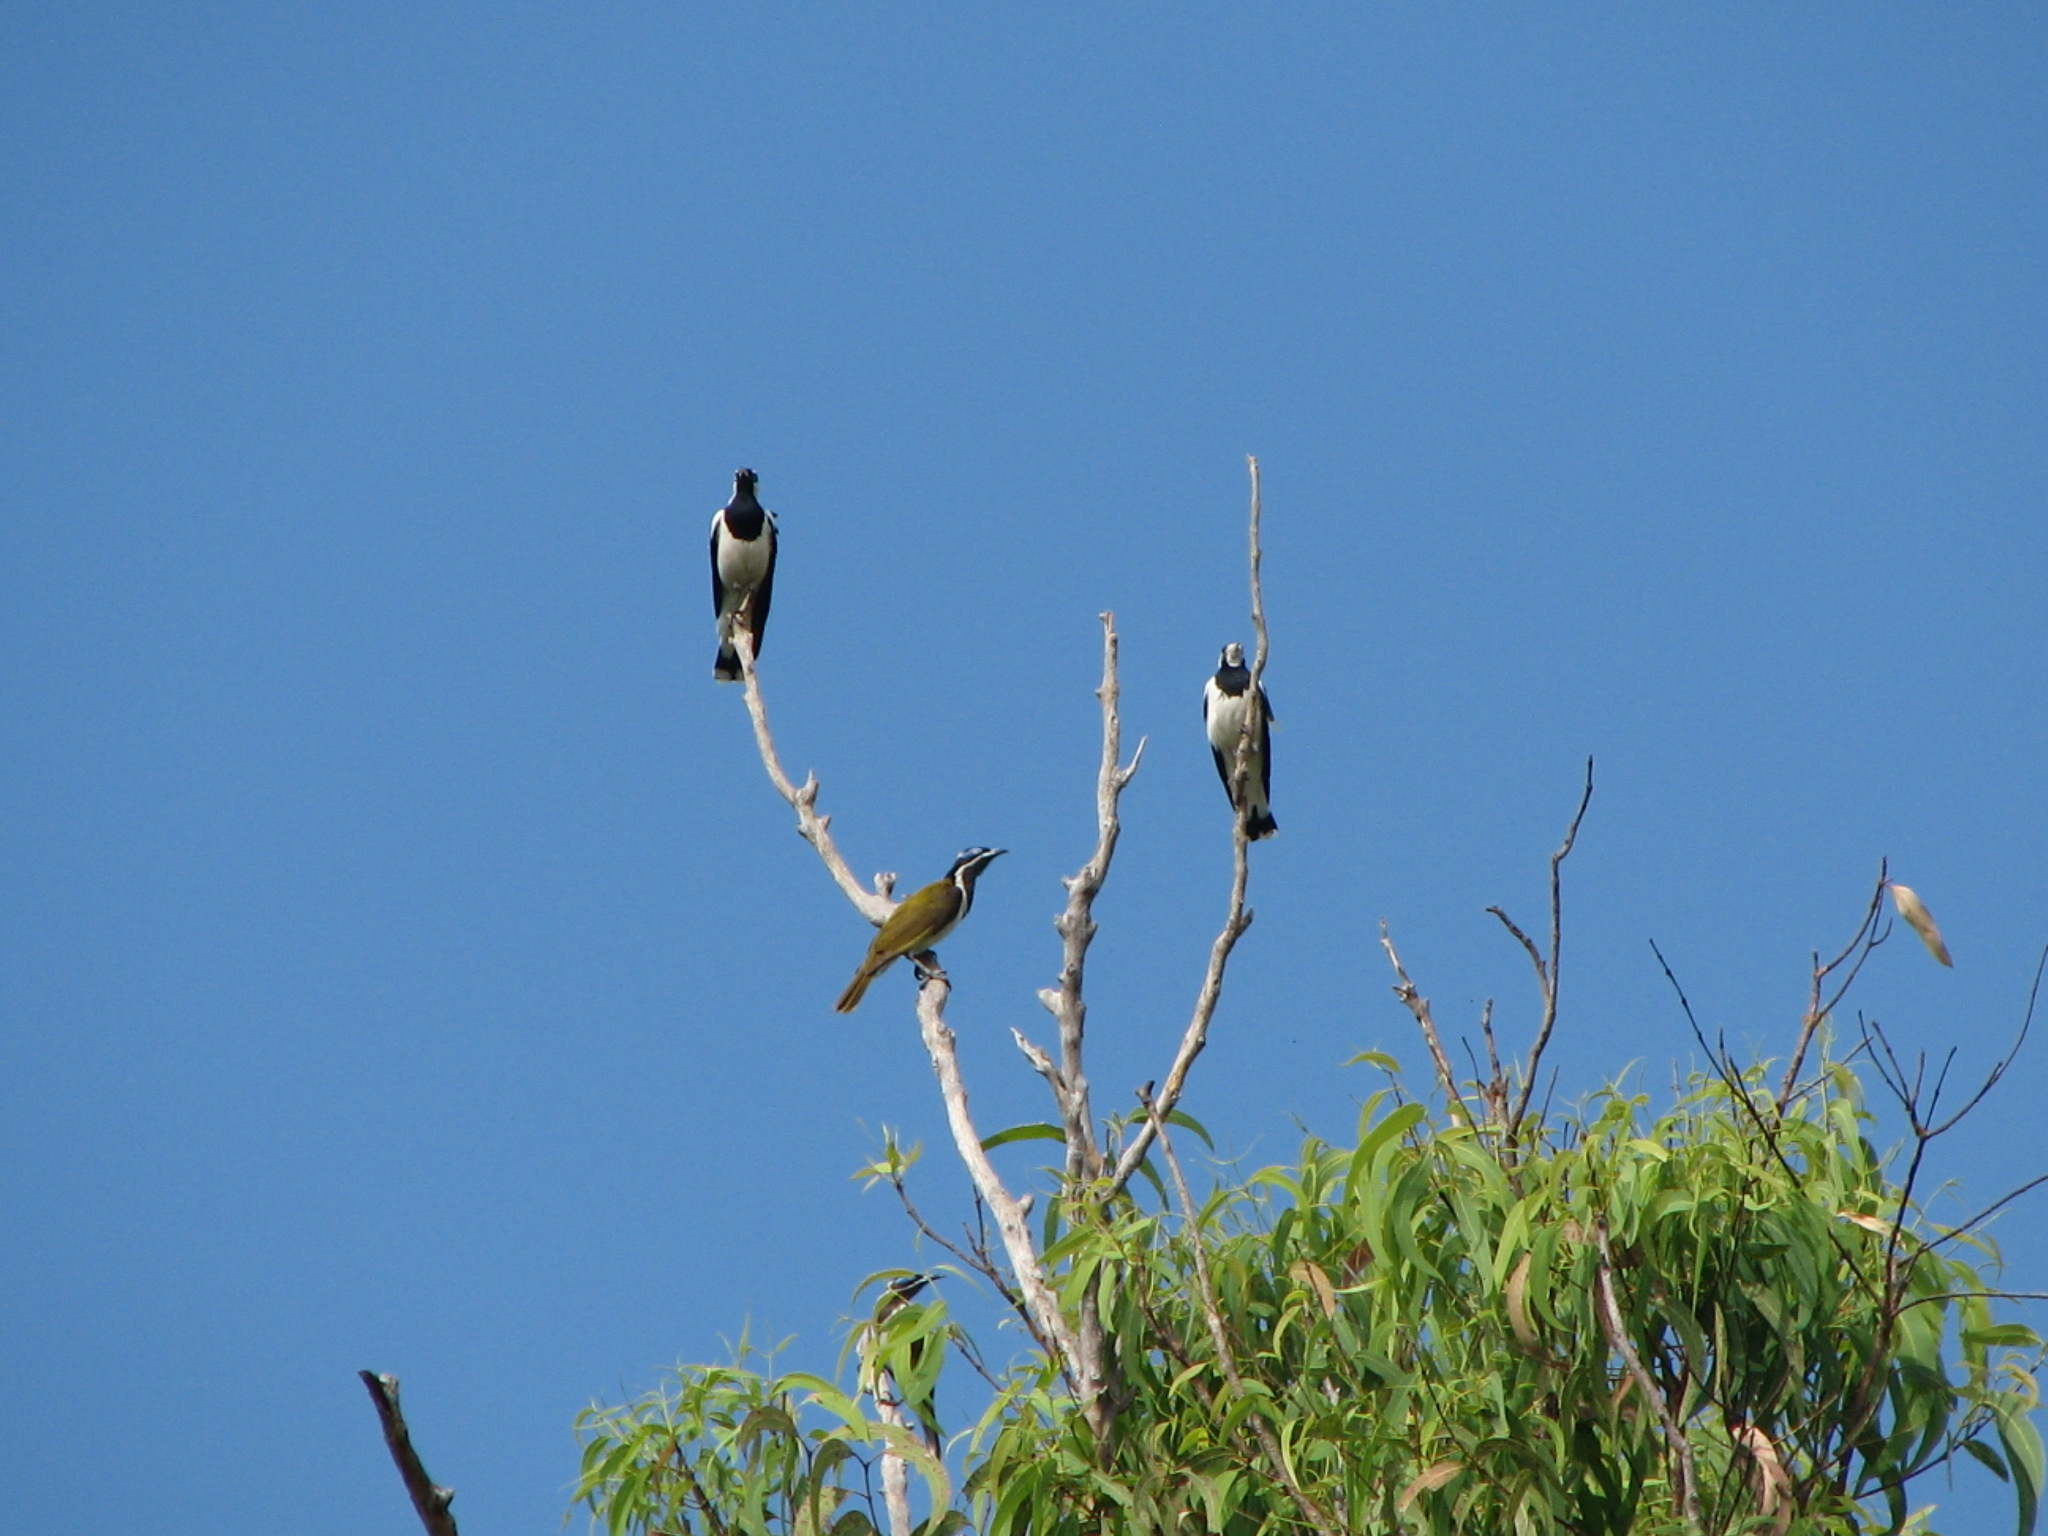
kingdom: Animalia
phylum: Chordata
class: Aves
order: Passeriformes
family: Meliphagidae
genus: Entomyzon
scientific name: Entomyzon cyanotis
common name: Blue-faced honeyeater
